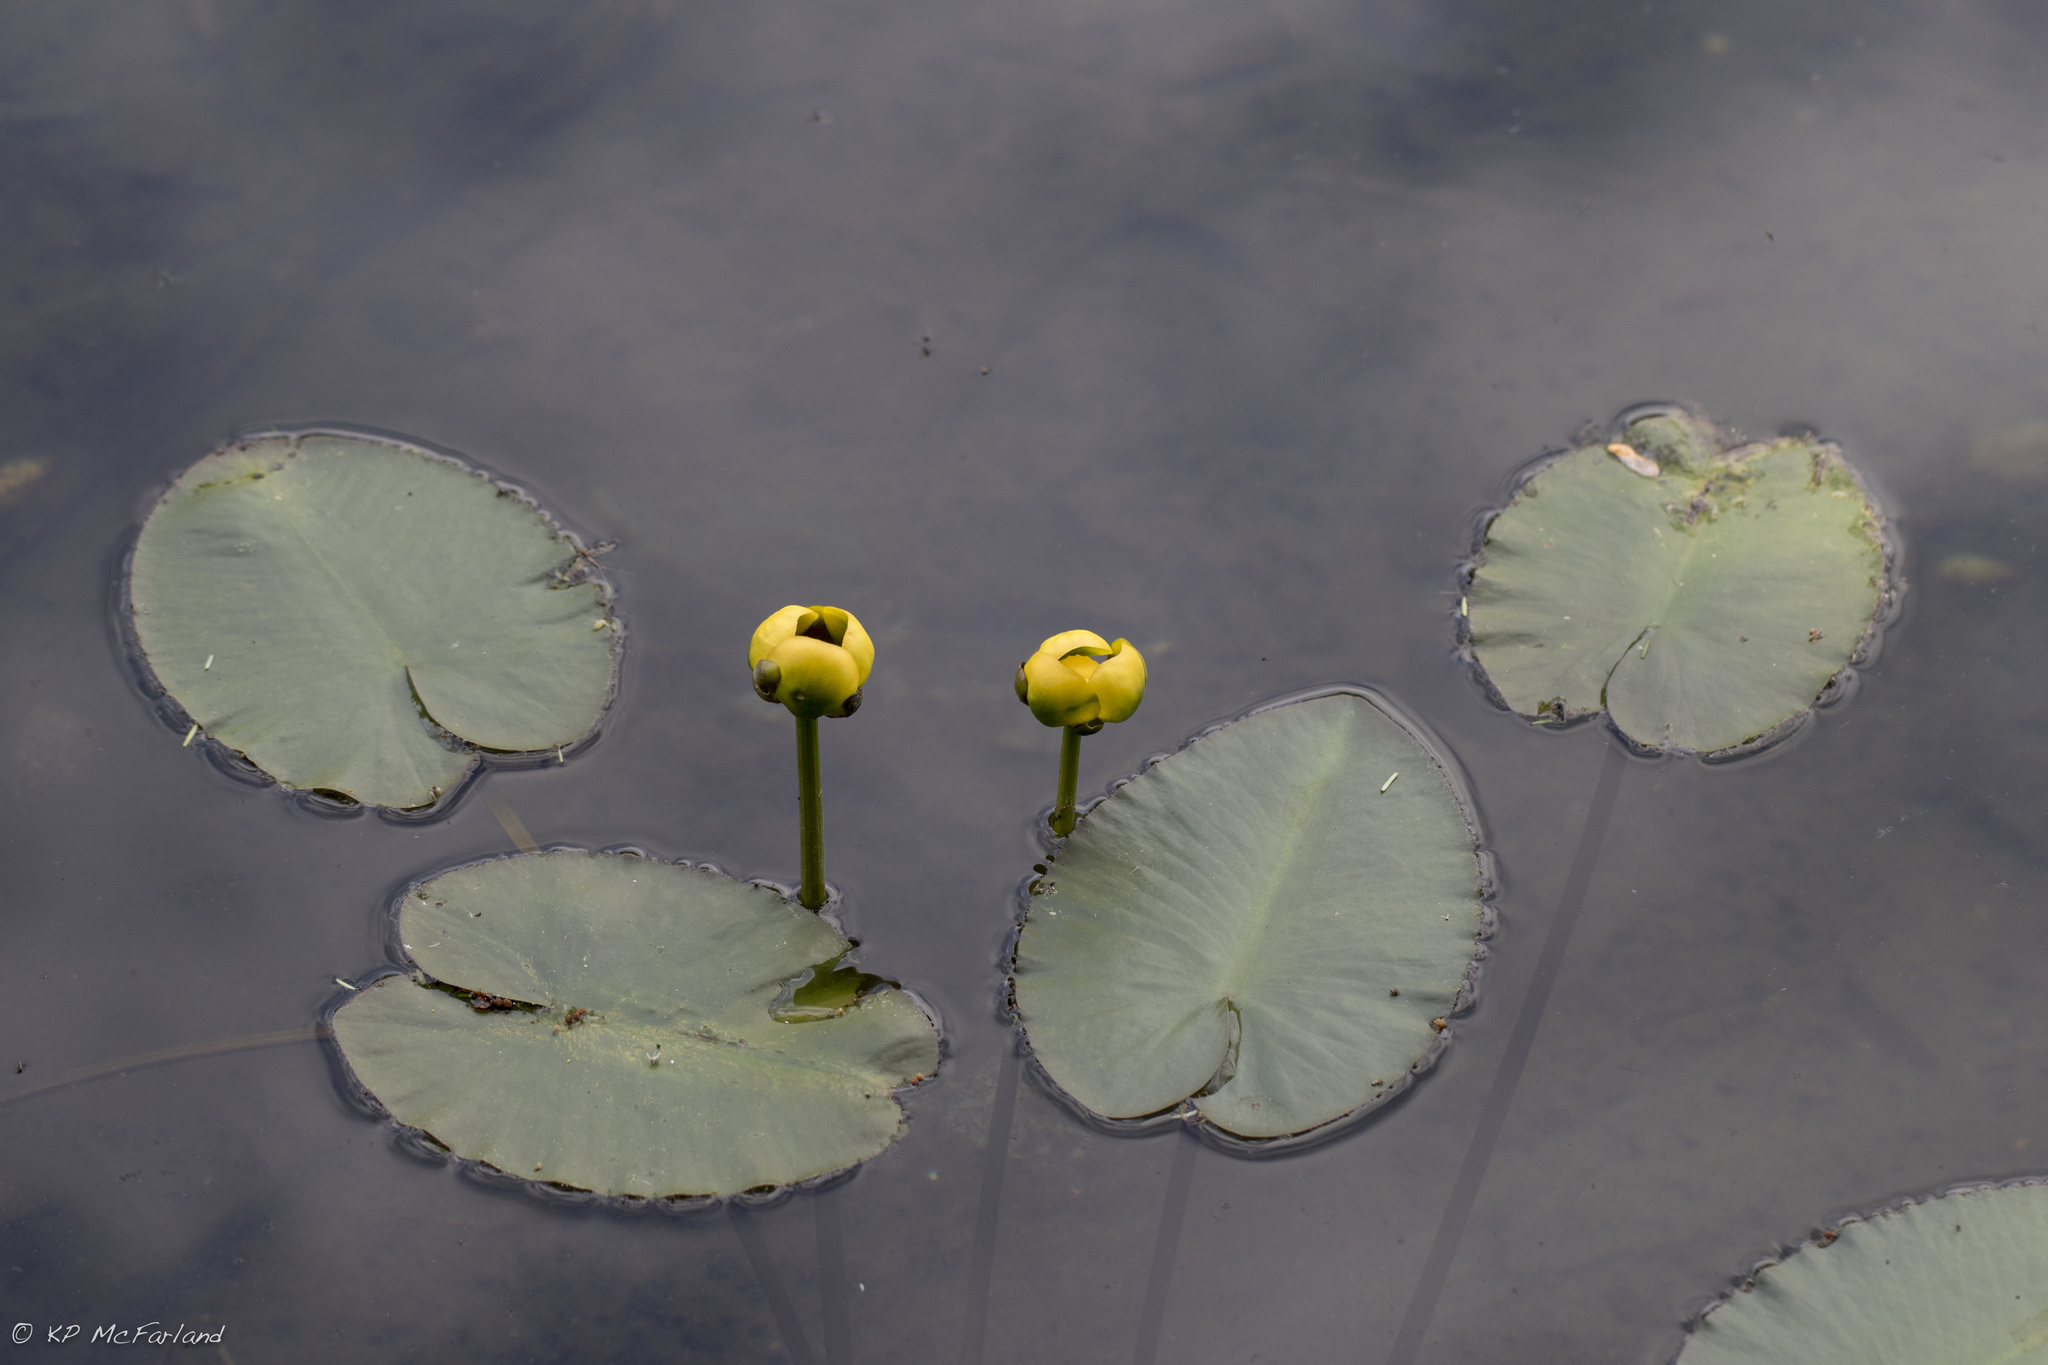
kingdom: Plantae
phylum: Tracheophyta
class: Magnoliopsida
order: Nymphaeales
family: Nymphaeaceae
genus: Nuphar
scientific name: Nuphar variegata
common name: Beaver-root
